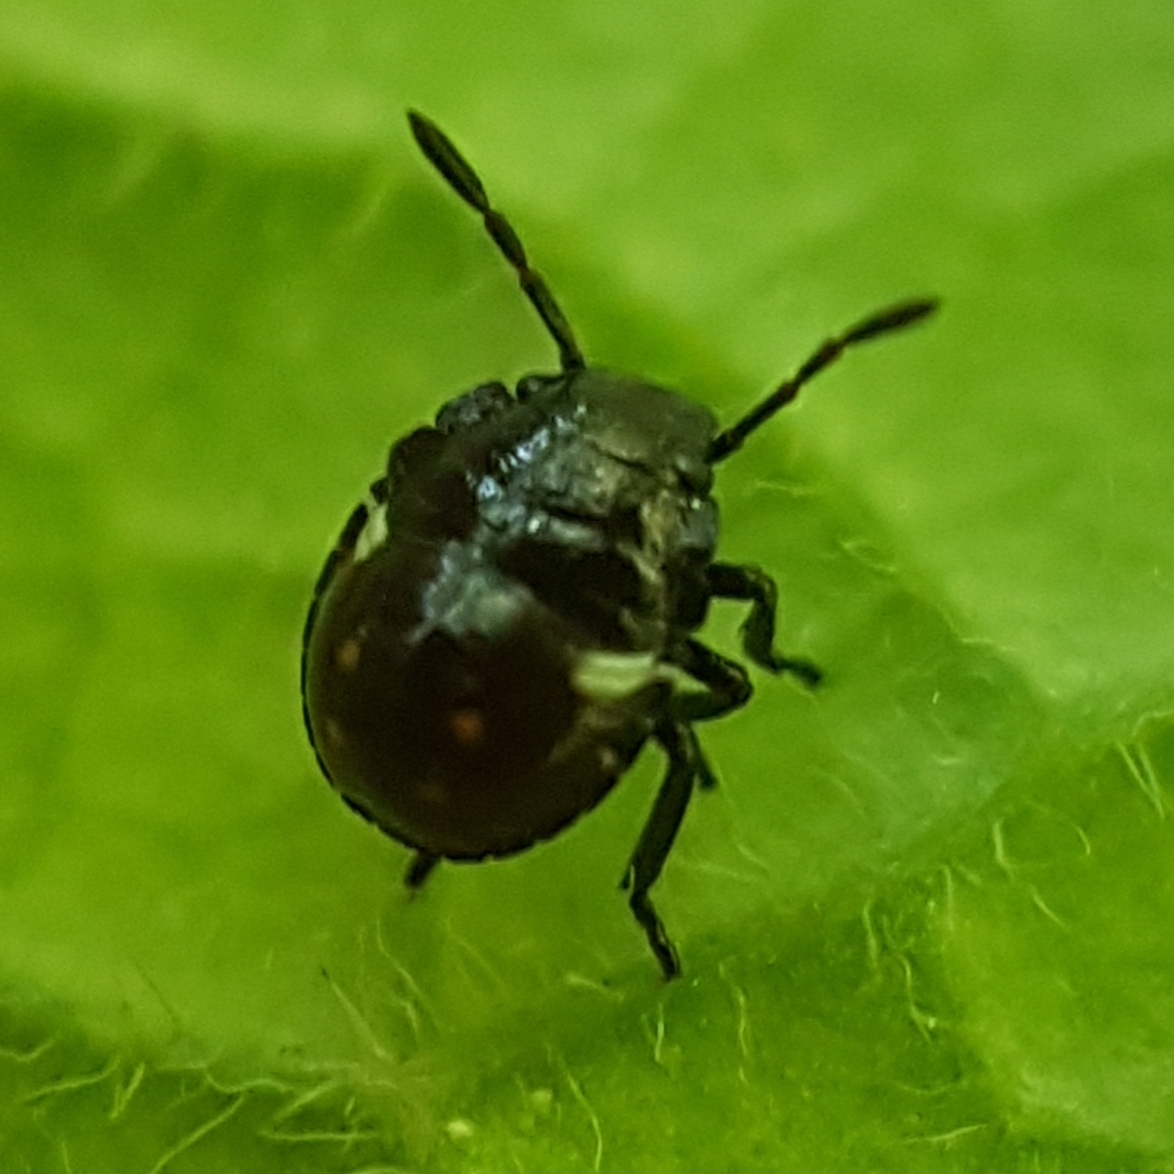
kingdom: Animalia
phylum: Arthropoda
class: Insecta
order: Hemiptera
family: Pentatomidae
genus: Nezara
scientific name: Nezara viridula
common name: Southern green stink bug
